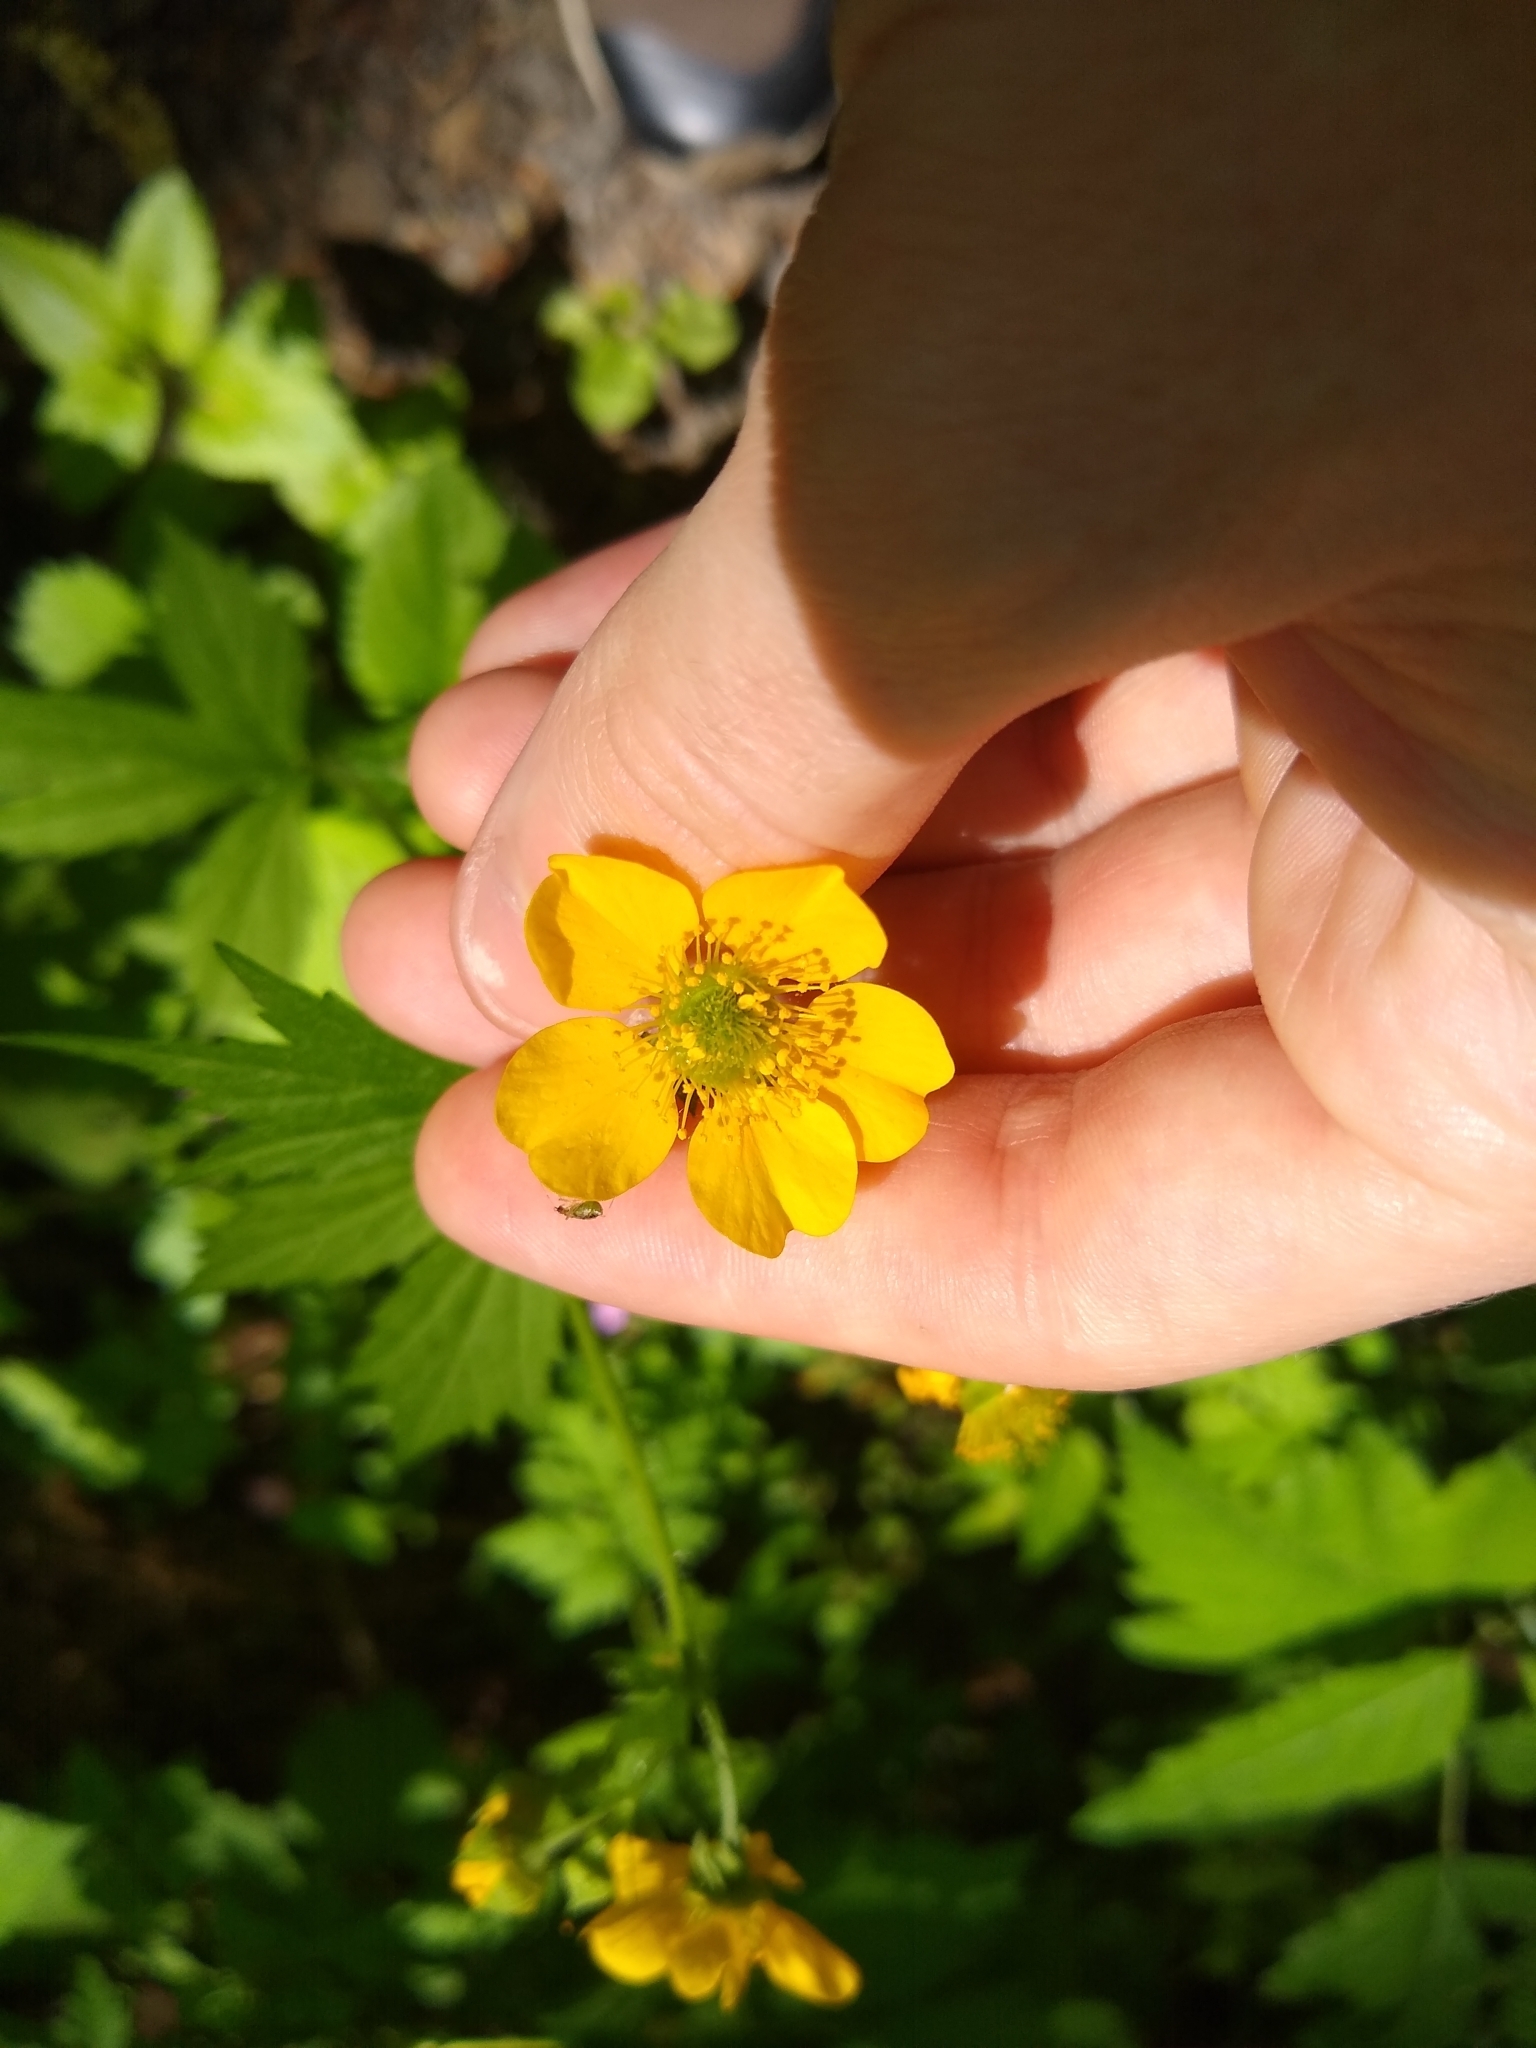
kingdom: Plantae
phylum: Tracheophyta
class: Magnoliopsida
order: Rosales
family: Rosaceae
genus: Geum
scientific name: Geum macrophyllum
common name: Large-leaved avens
